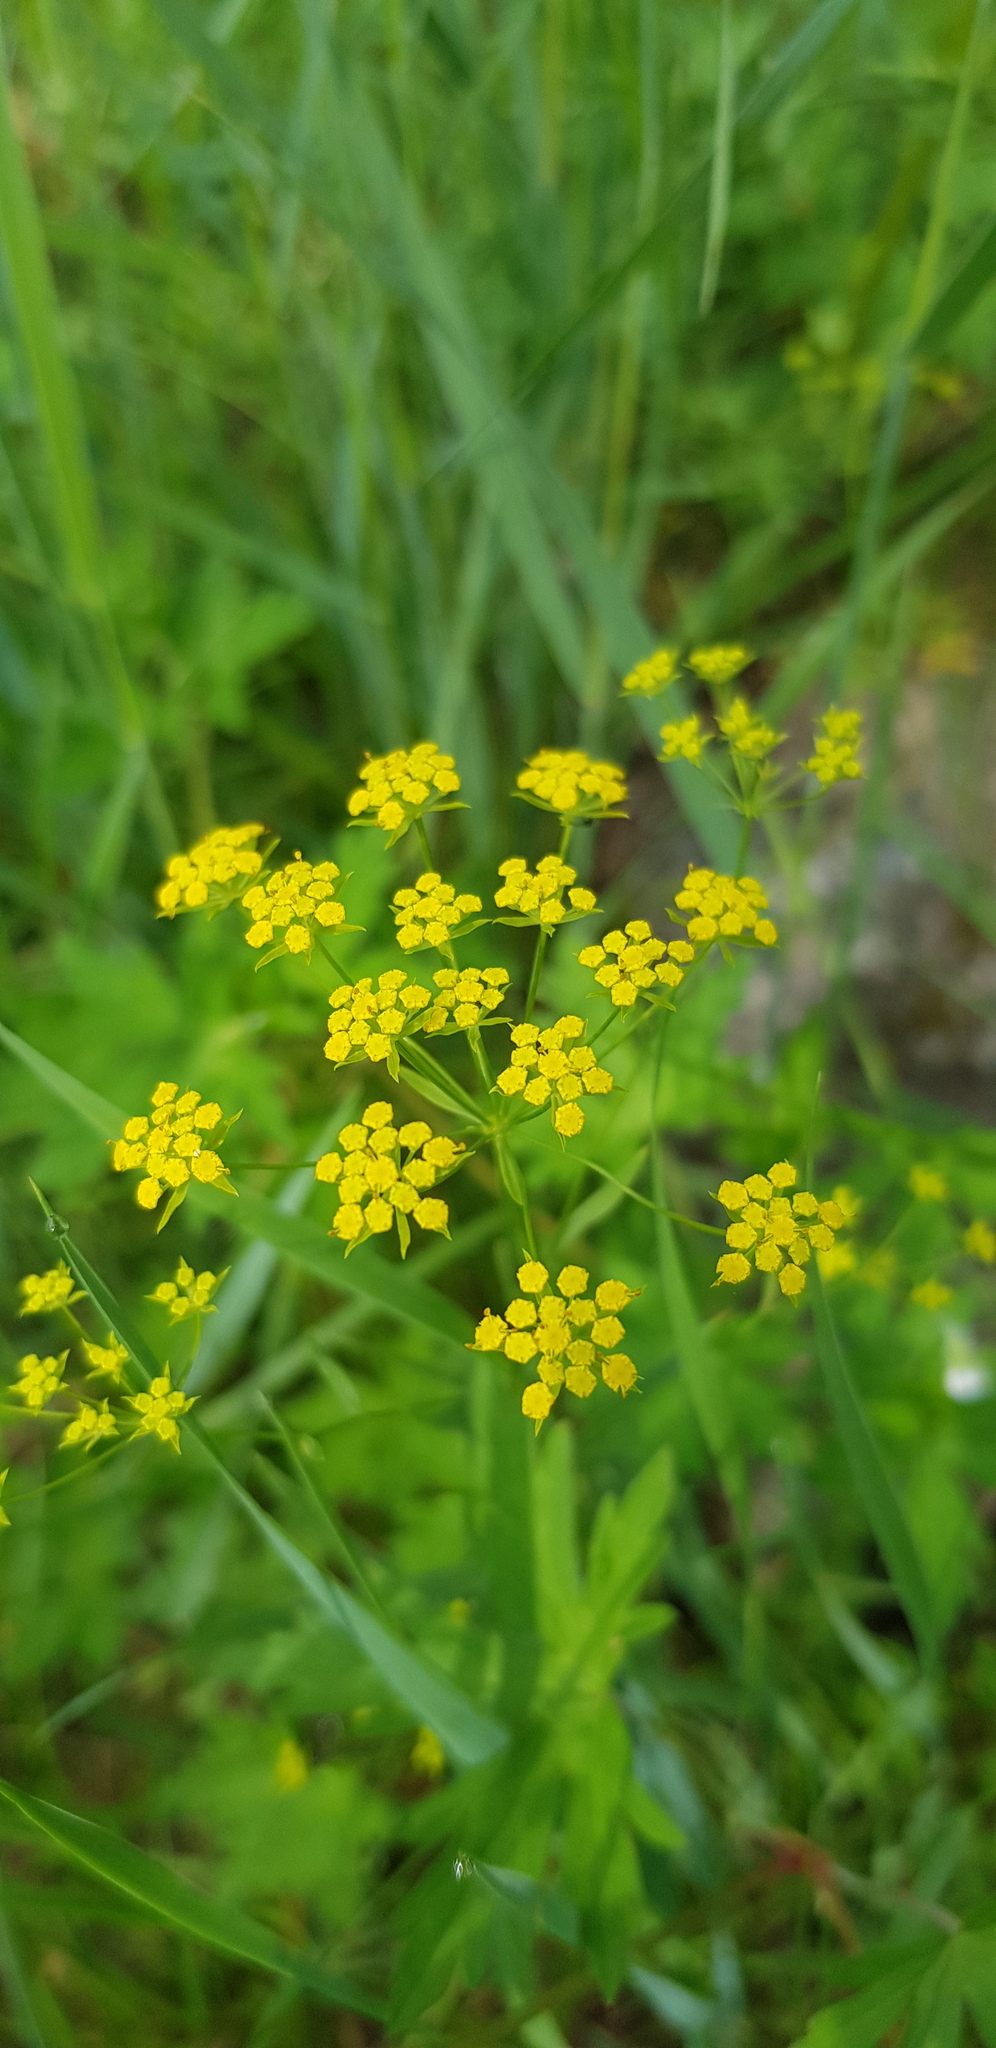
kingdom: Plantae
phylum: Tracheophyta
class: Magnoliopsida
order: Apiales
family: Apiaceae
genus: Bupleurum
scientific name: Bupleurum scorzonerifolium
